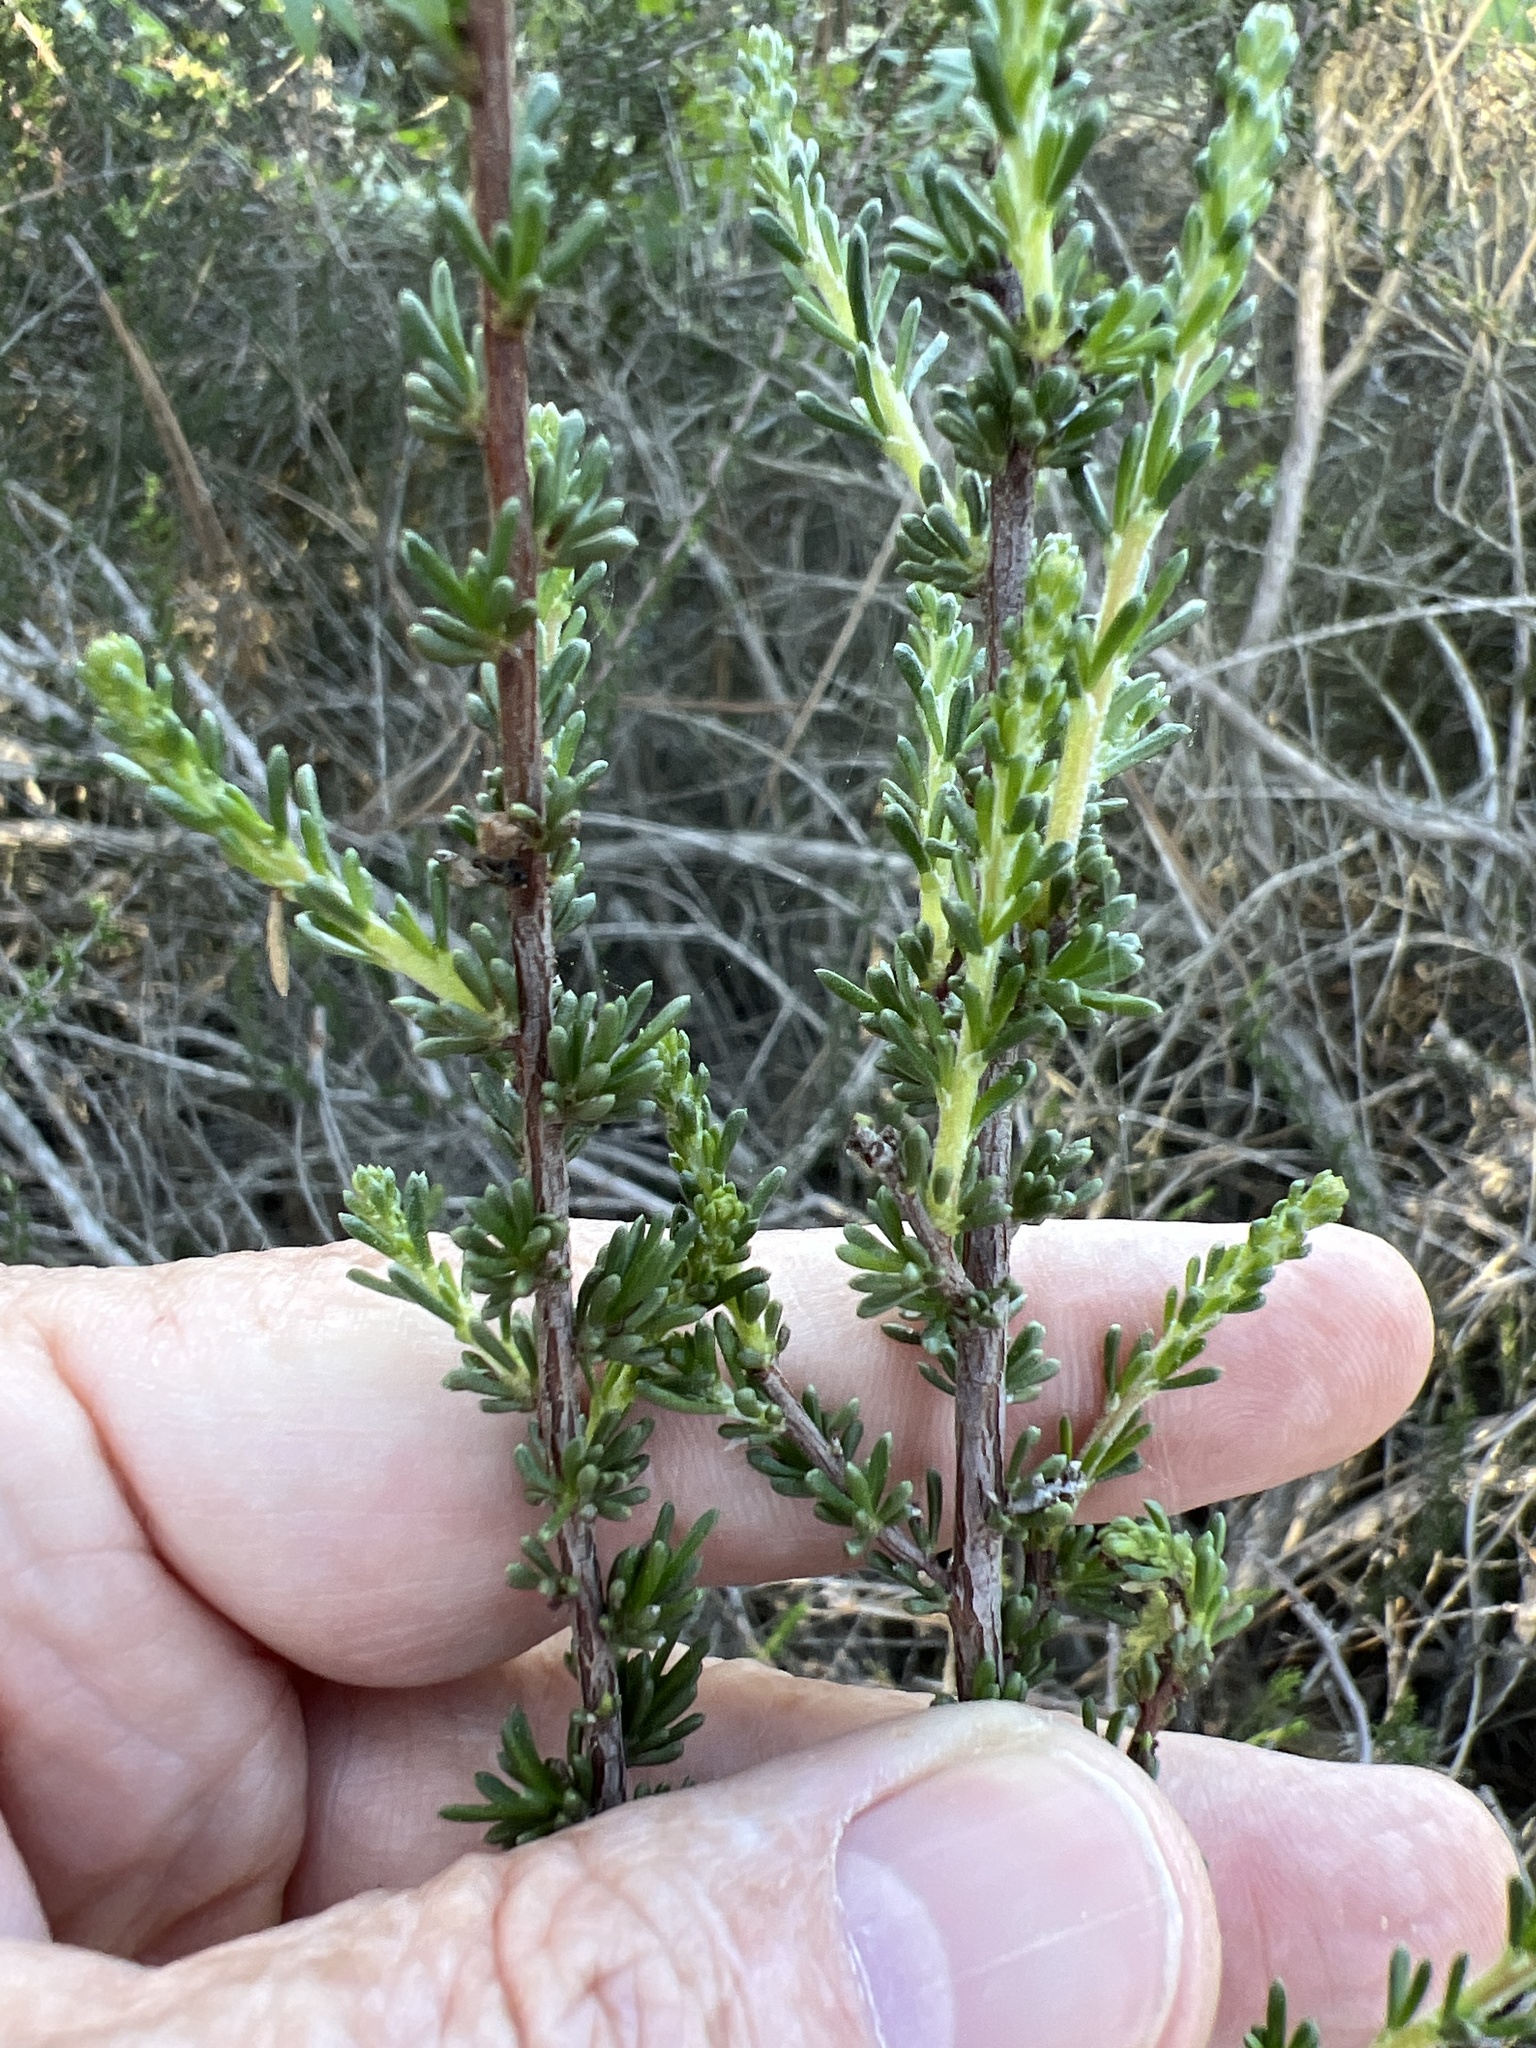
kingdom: Plantae
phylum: Tracheophyta
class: Magnoliopsida
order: Rosales
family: Rosaceae
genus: Adenostoma
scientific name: Adenostoma fasciculatum
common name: Chamise
